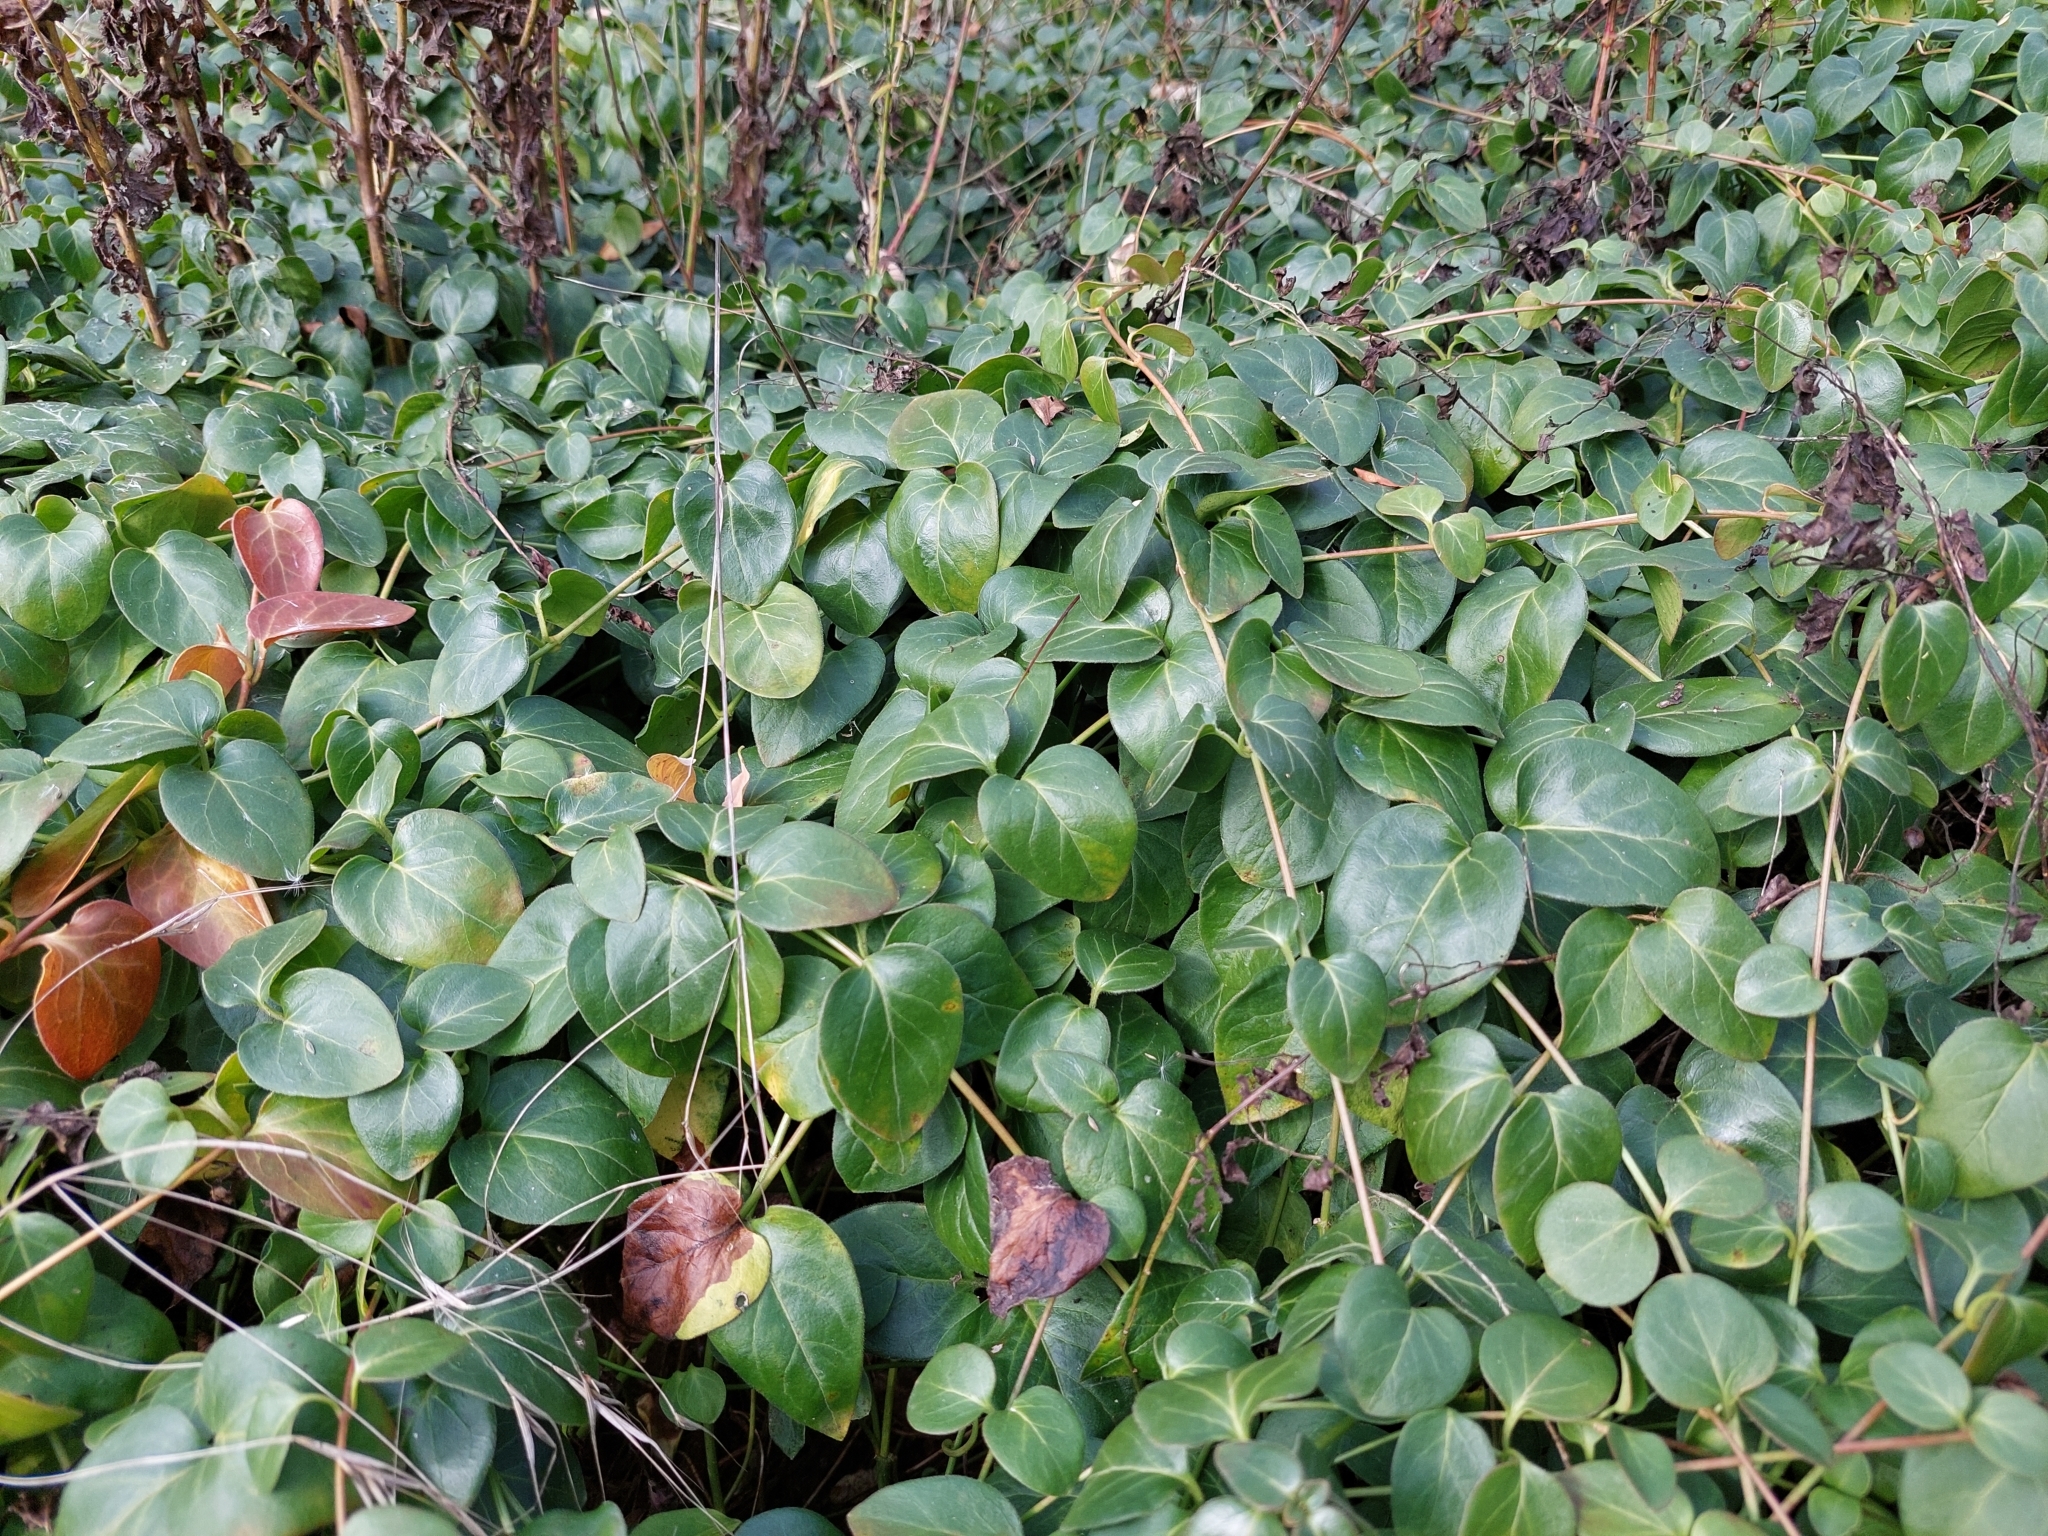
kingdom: Plantae
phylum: Tracheophyta
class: Magnoliopsida
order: Gentianales
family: Apocynaceae
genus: Vinca
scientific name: Vinca major
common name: Greater periwinkle
